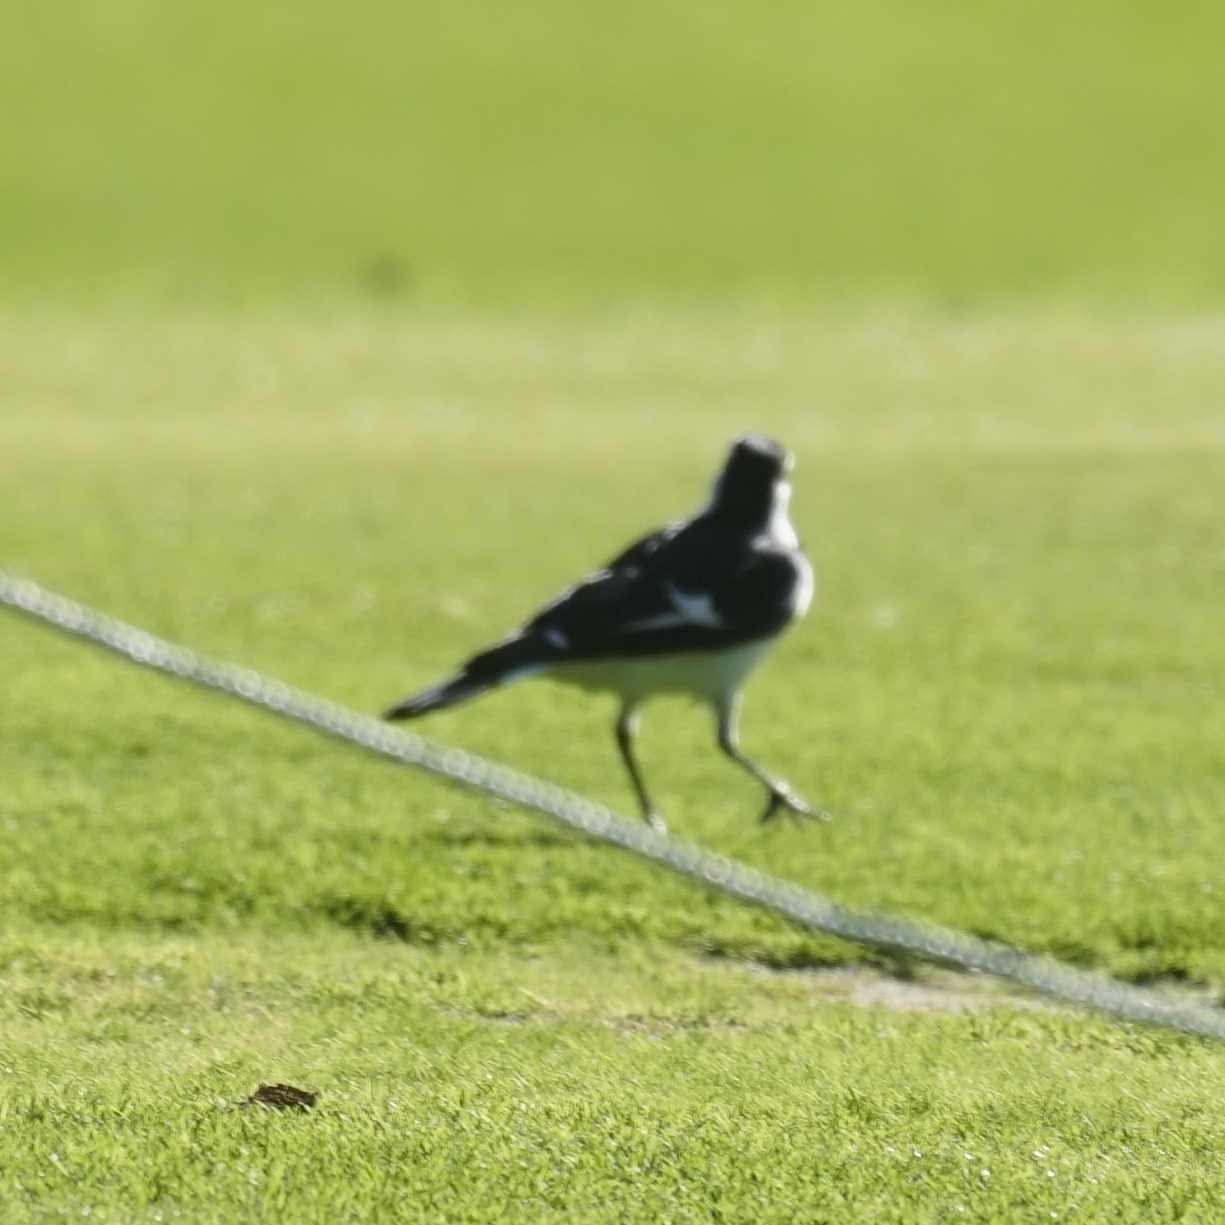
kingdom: Animalia
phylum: Chordata
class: Aves
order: Passeriformes
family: Monarchidae
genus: Grallina
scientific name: Grallina cyanoleuca
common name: Magpie-lark
